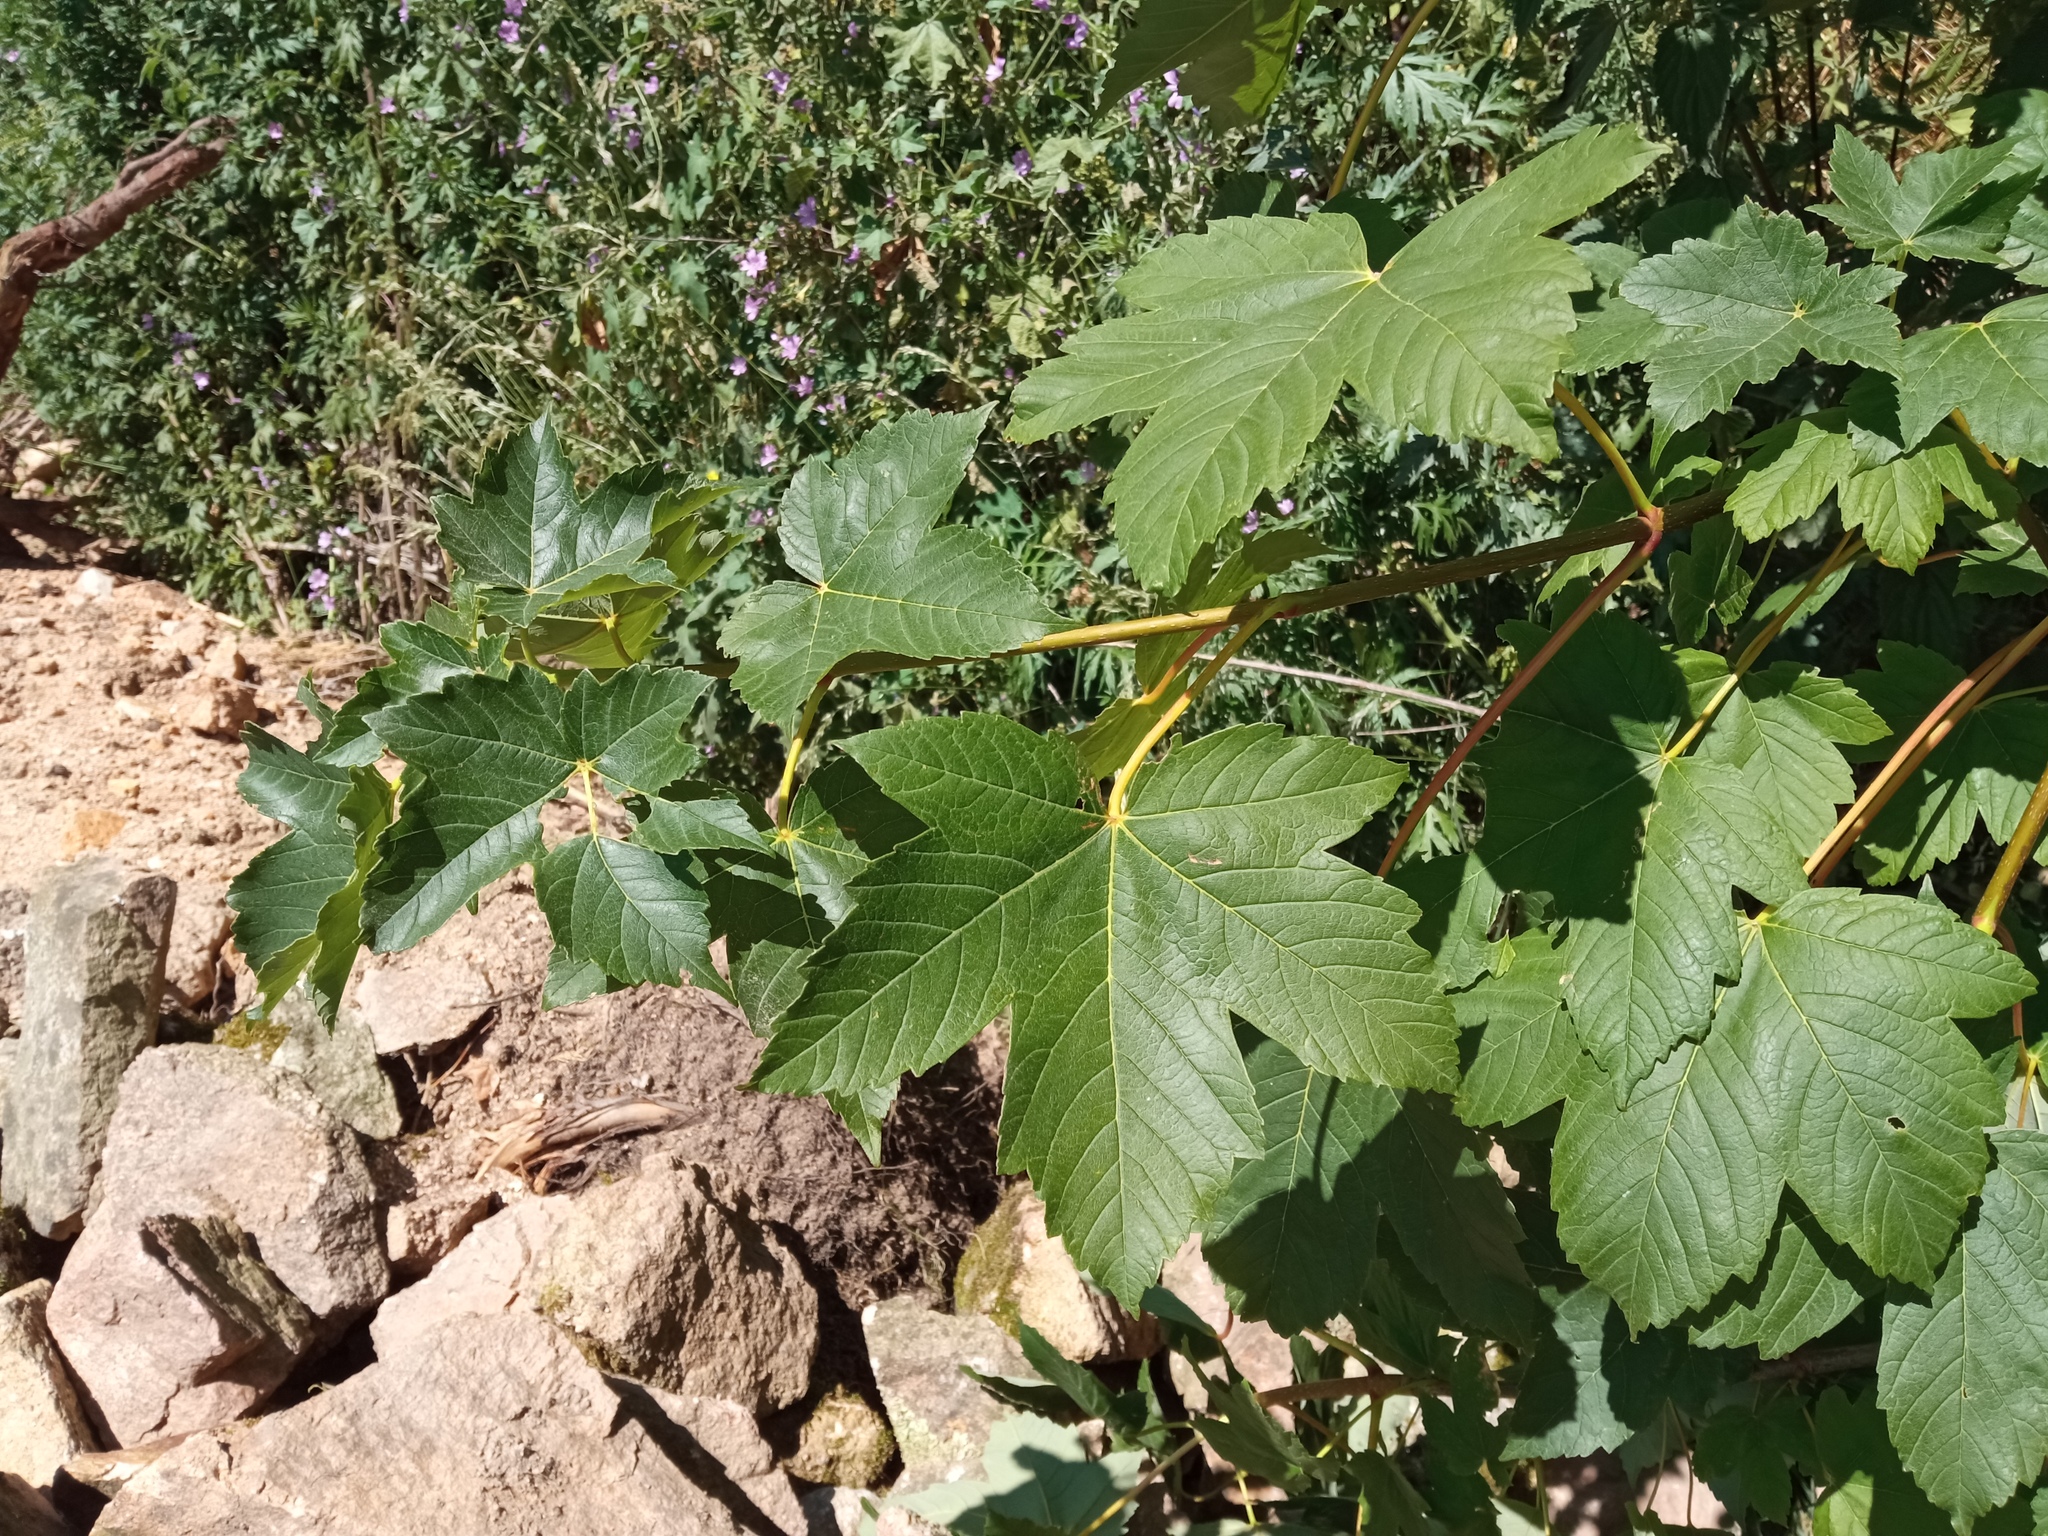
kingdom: Plantae
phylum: Tracheophyta
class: Magnoliopsida
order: Sapindales
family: Sapindaceae
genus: Acer
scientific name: Acer pseudoplatanus
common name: Sycamore
